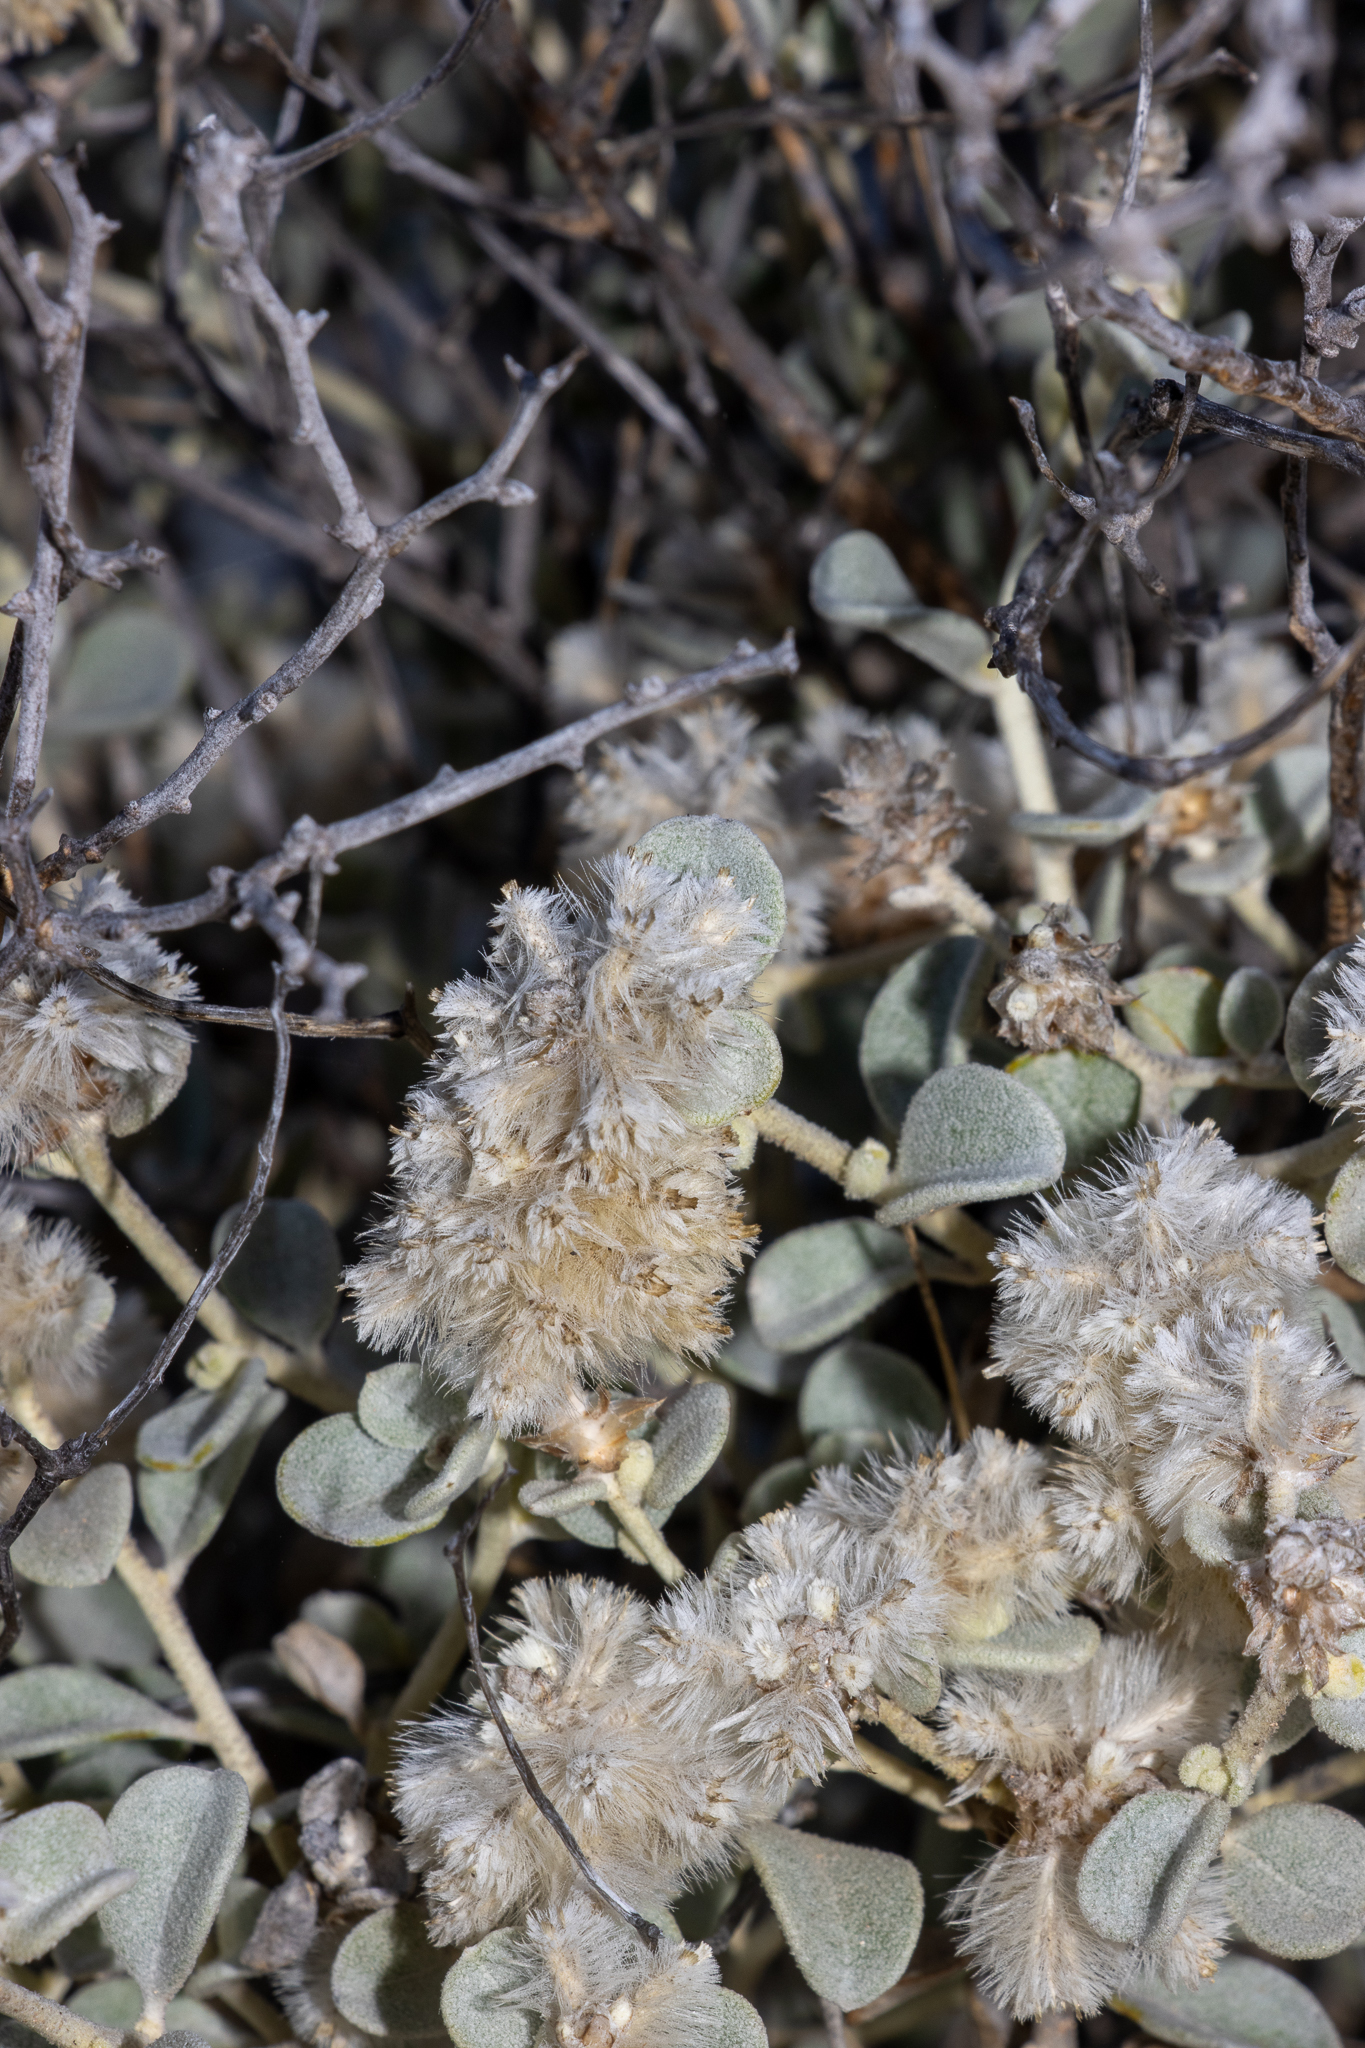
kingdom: Plantae
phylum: Tracheophyta
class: Magnoliopsida
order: Caryophyllales
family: Amaranthaceae
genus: Ptilotus
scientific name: Ptilotus obovatus
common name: Cottonbush
